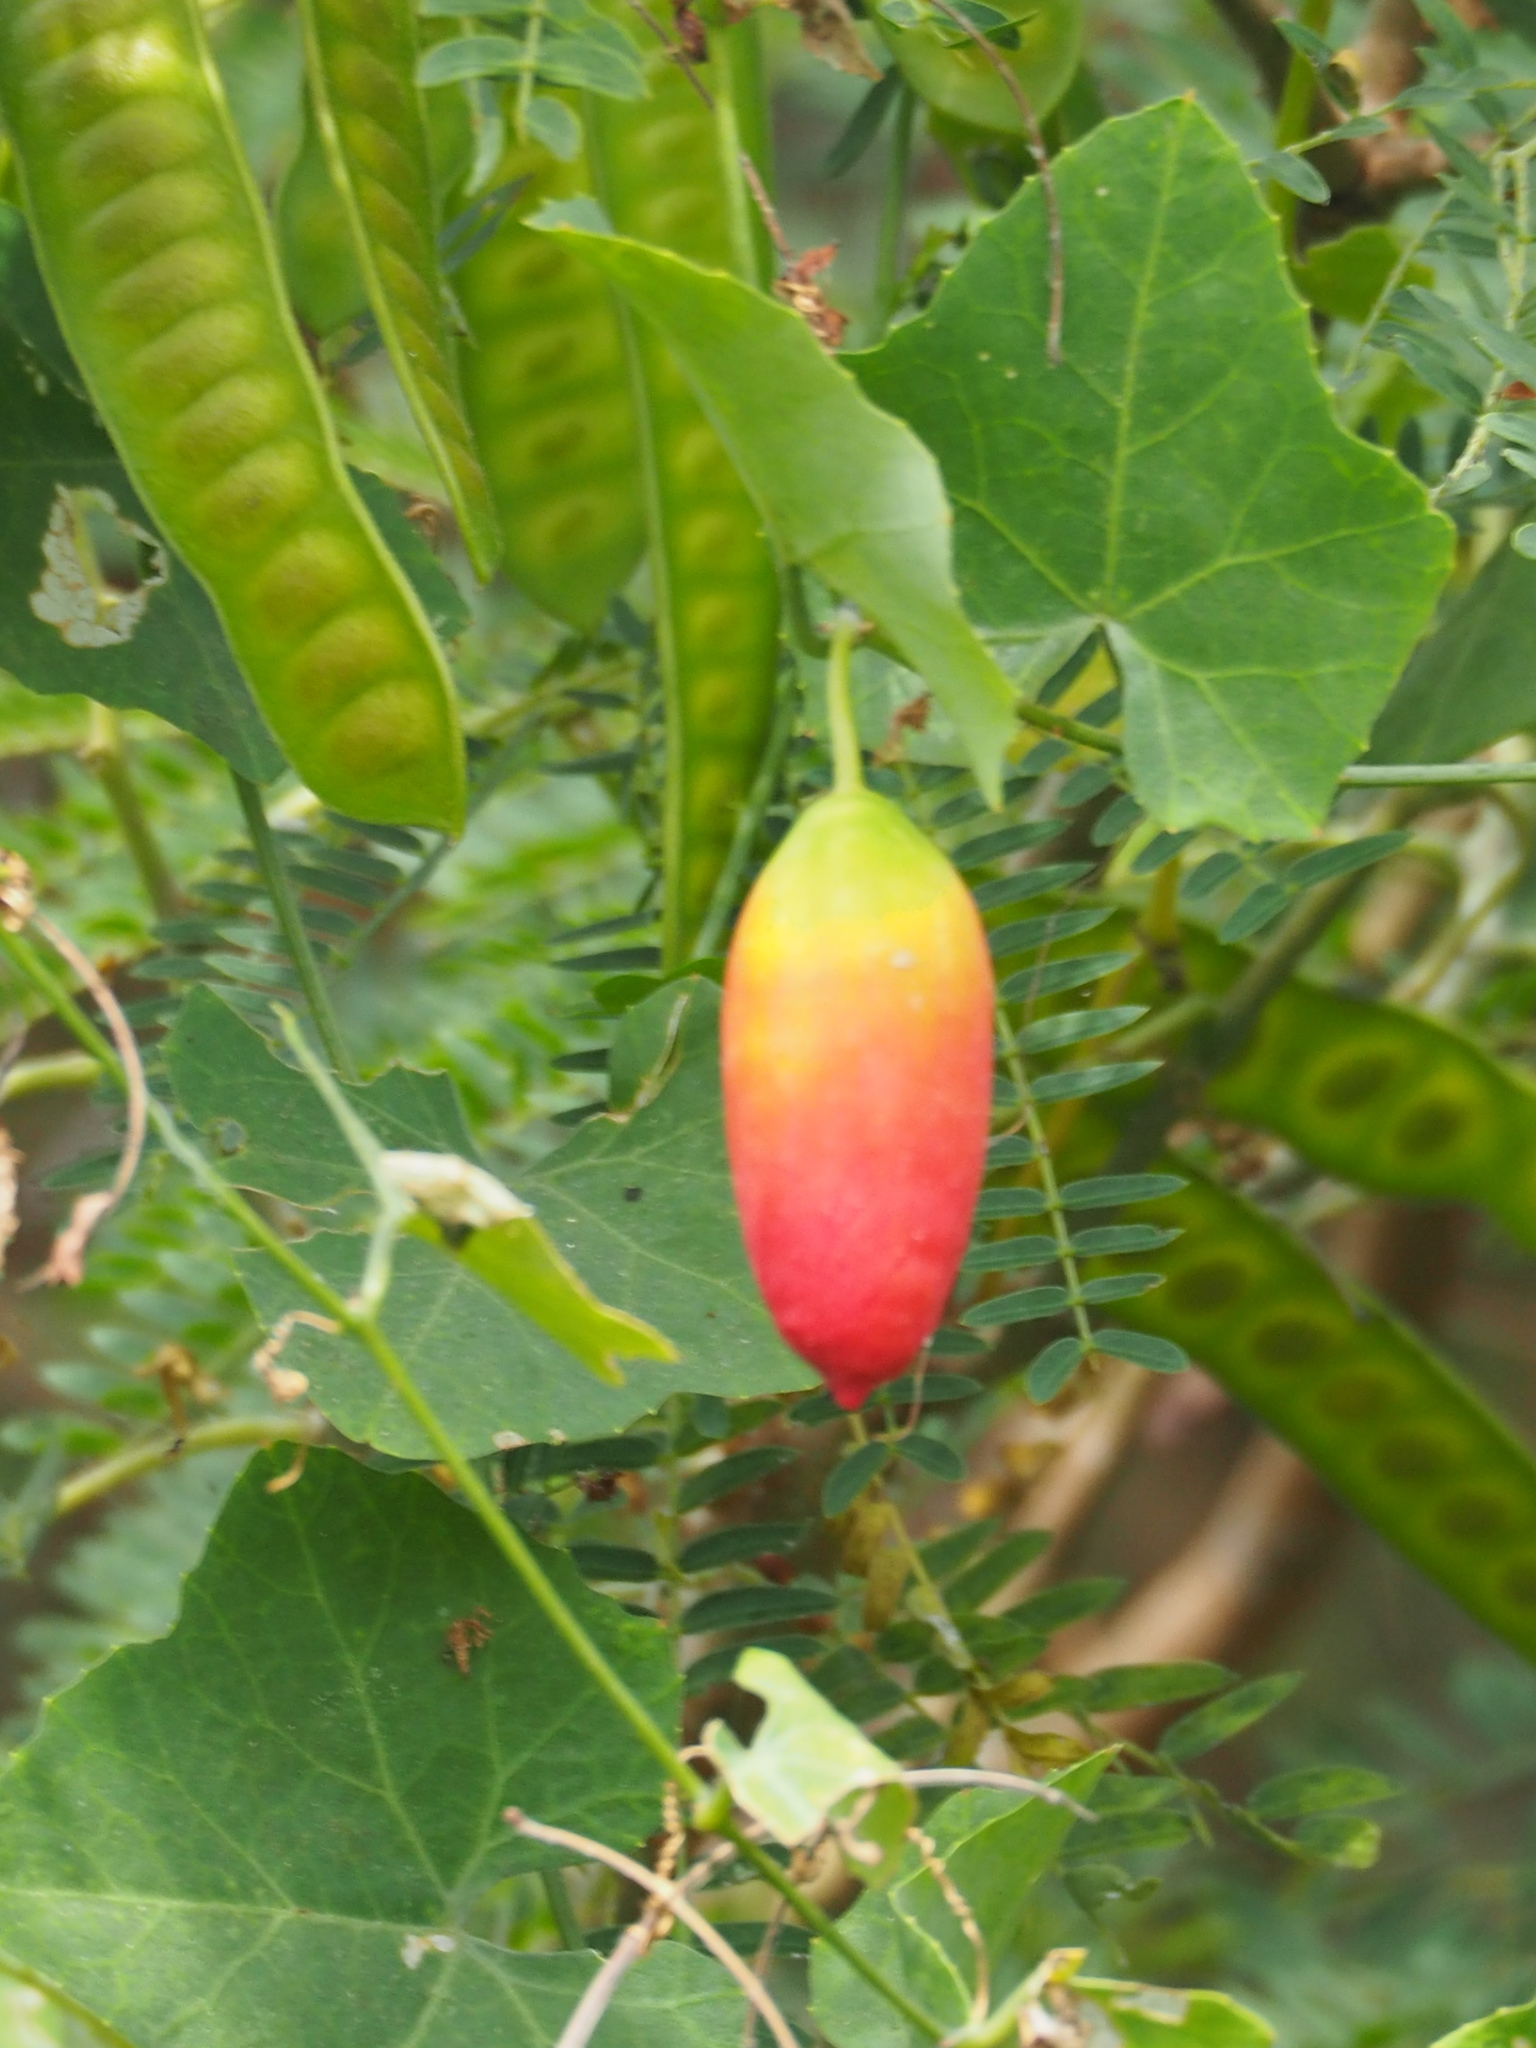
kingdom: Plantae
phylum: Tracheophyta
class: Magnoliopsida
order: Cucurbitales
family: Cucurbitaceae
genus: Coccinia
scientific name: Coccinia grandis
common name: Ivy gourd
